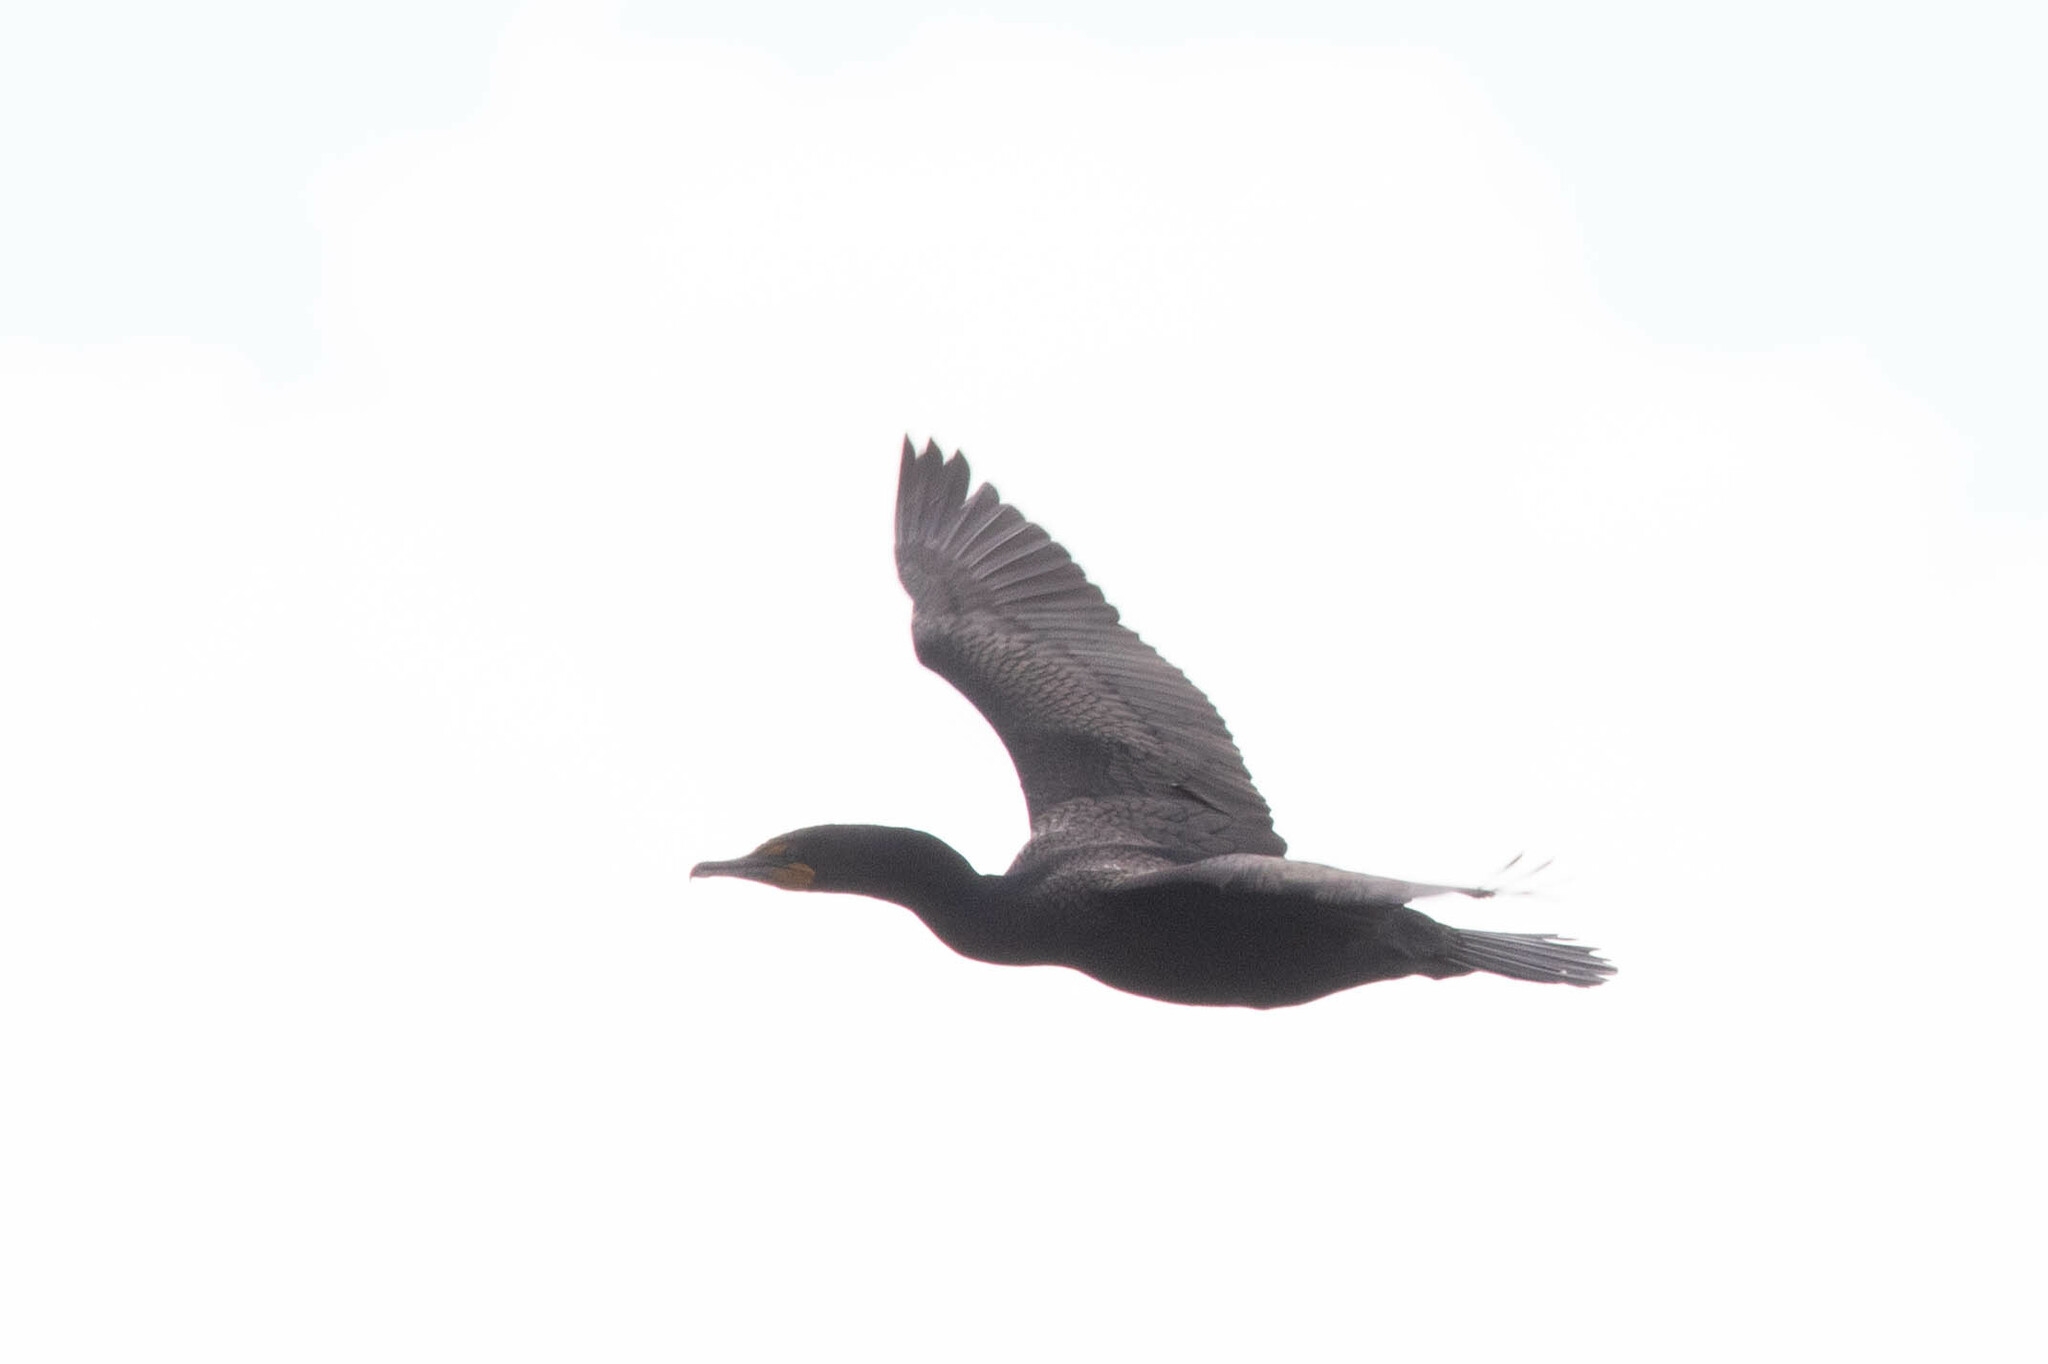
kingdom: Animalia
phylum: Chordata
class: Aves
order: Suliformes
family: Phalacrocoracidae
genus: Phalacrocorax
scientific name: Phalacrocorax auritus
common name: Double-crested cormorant
